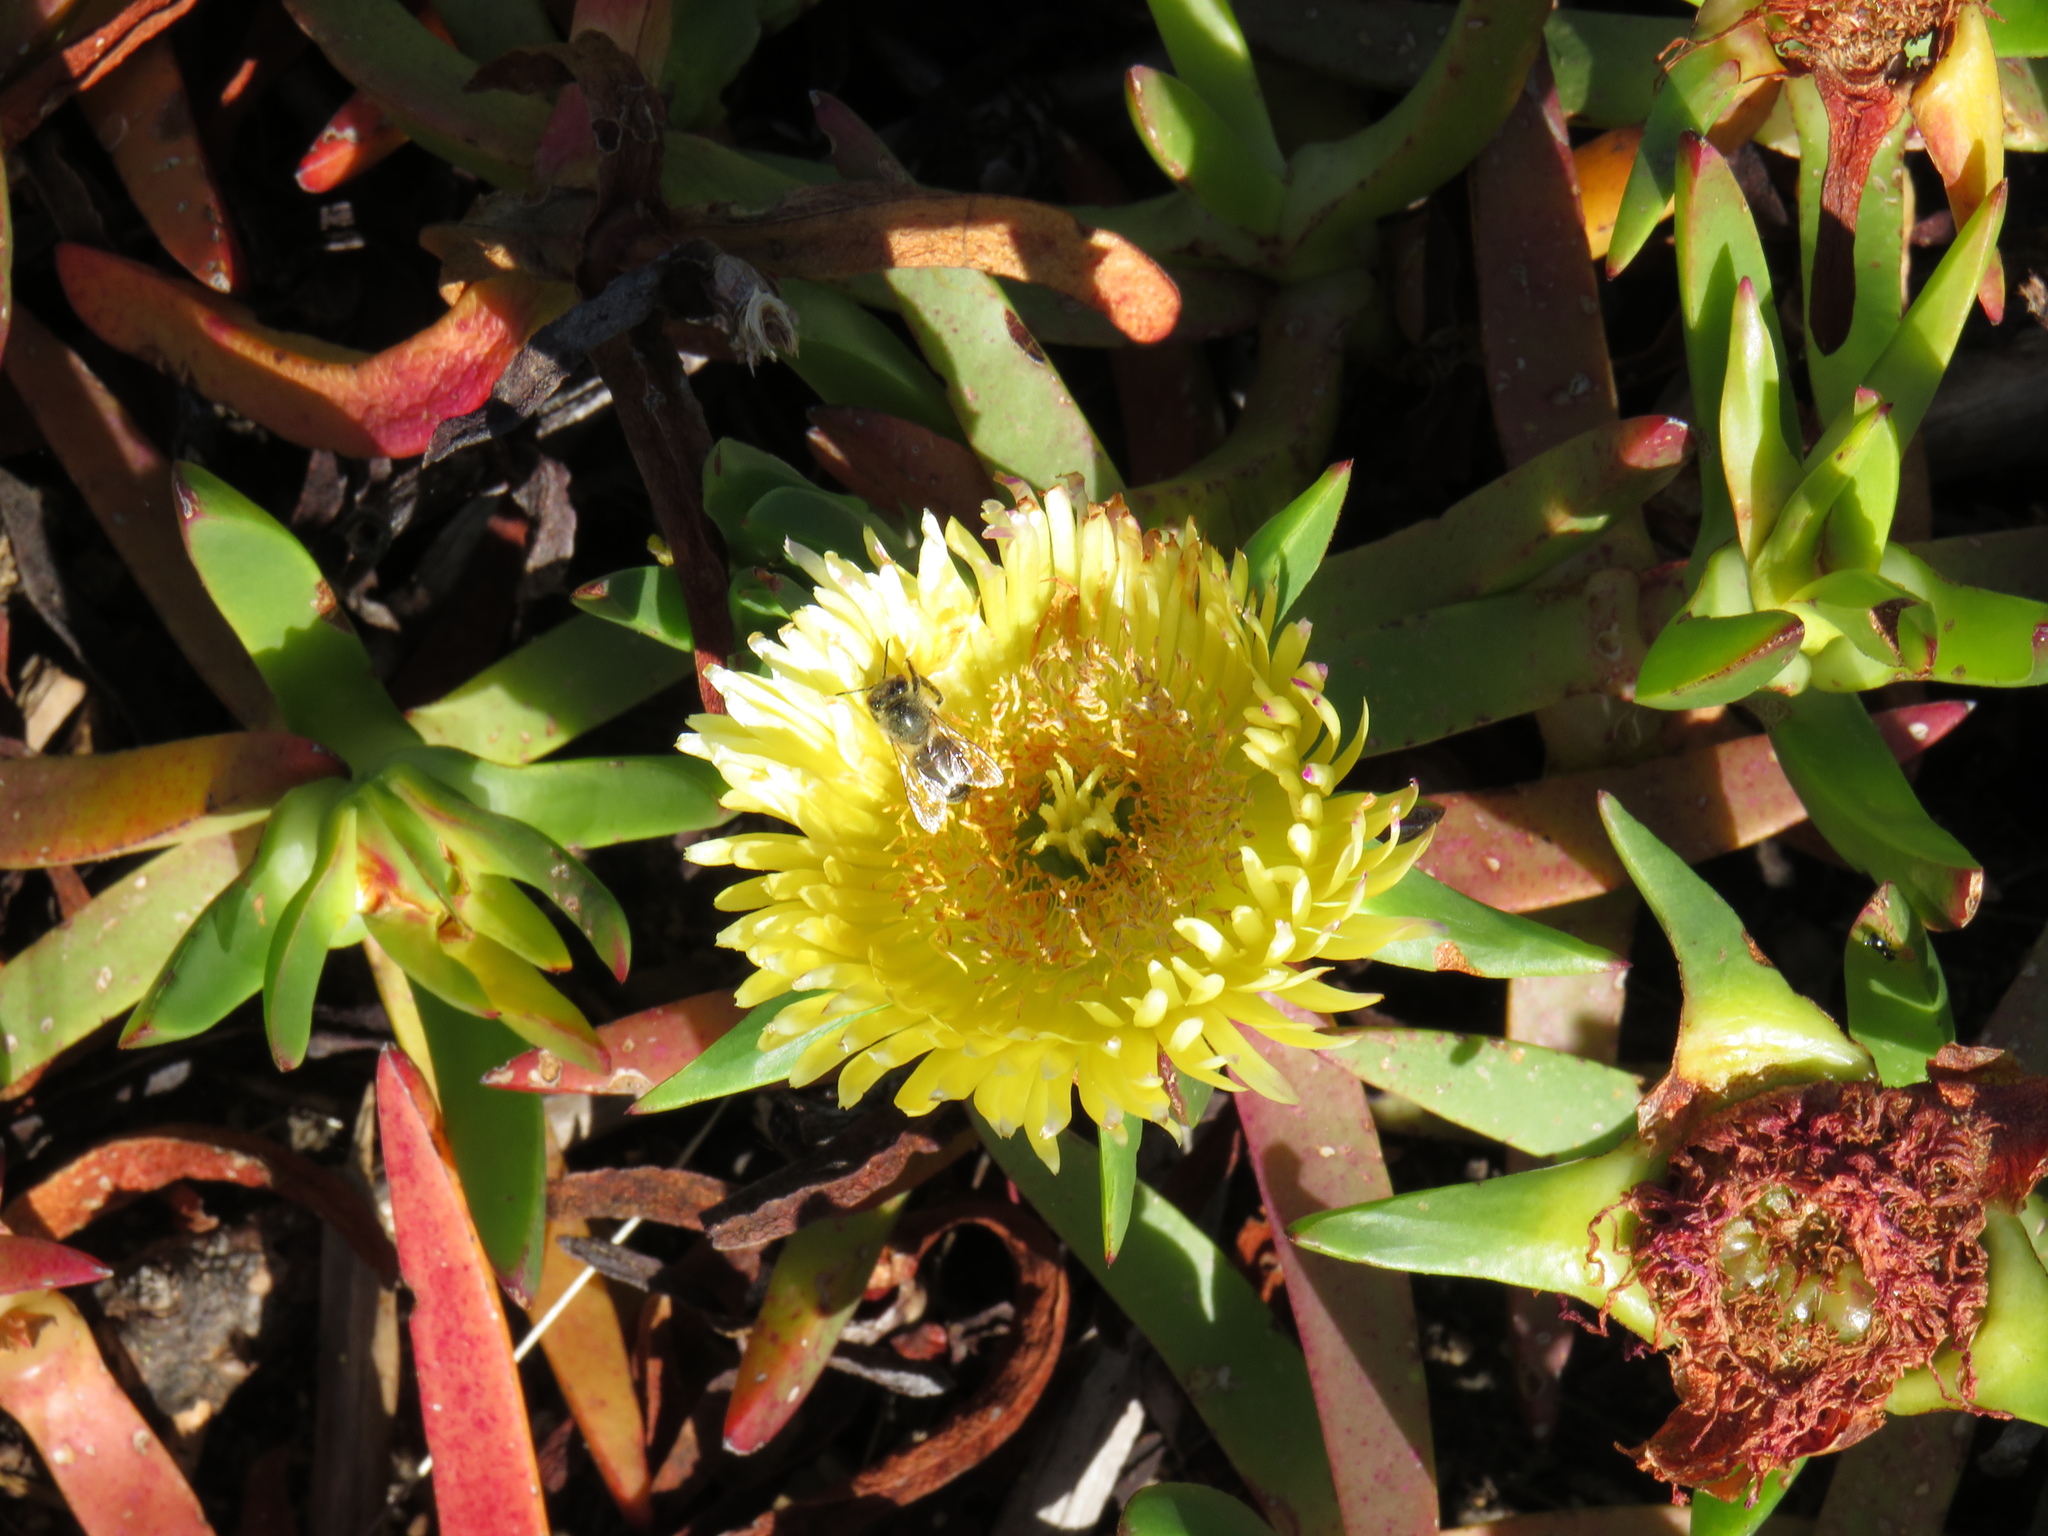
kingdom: Animalia
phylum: Arthropoda
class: Insecta
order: Hymenoptera
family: Apidae
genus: Apis
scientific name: Apis mellifera
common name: Honey bee
